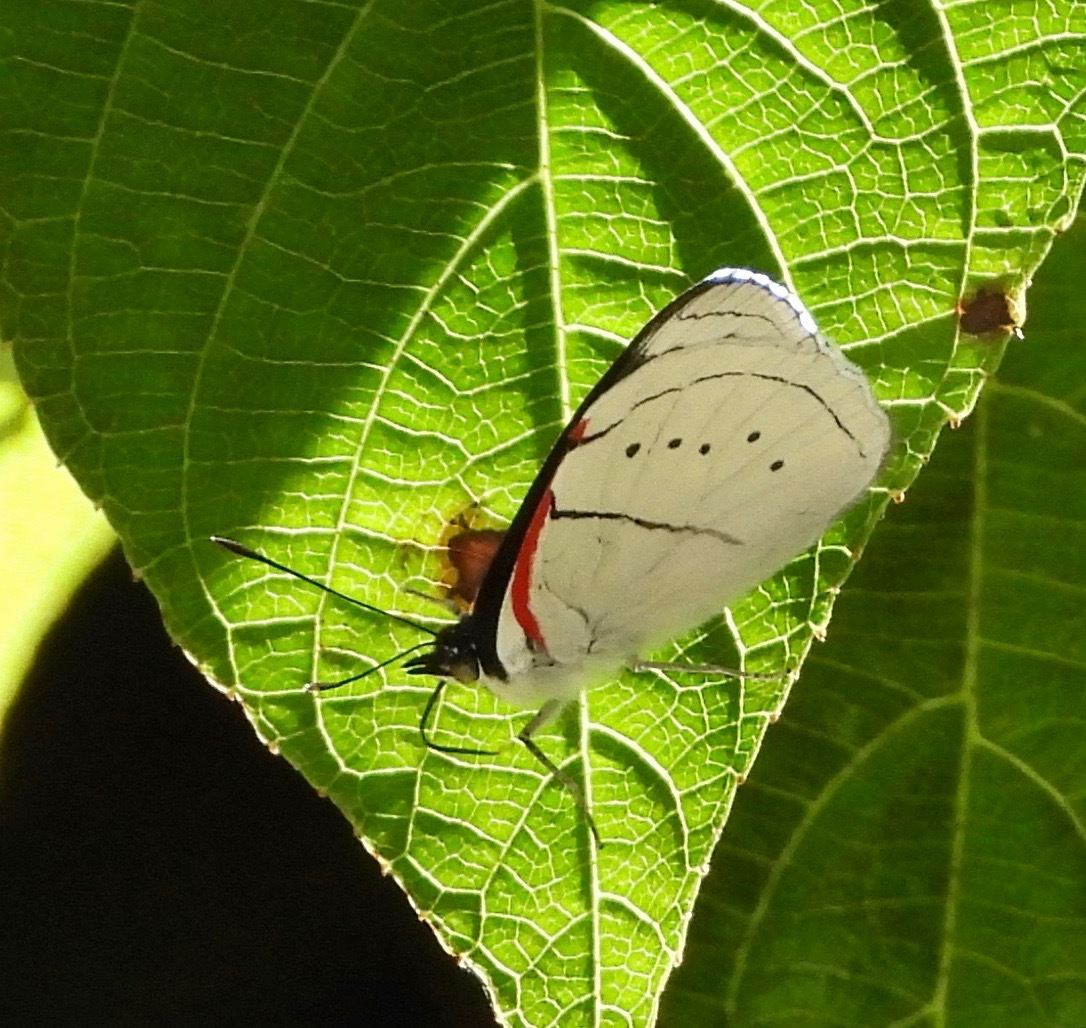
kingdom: Animalia
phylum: Arthropoda
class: Insecta
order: Lepidoptera
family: Nymphalidae
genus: Perisama
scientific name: Perisama yeba
